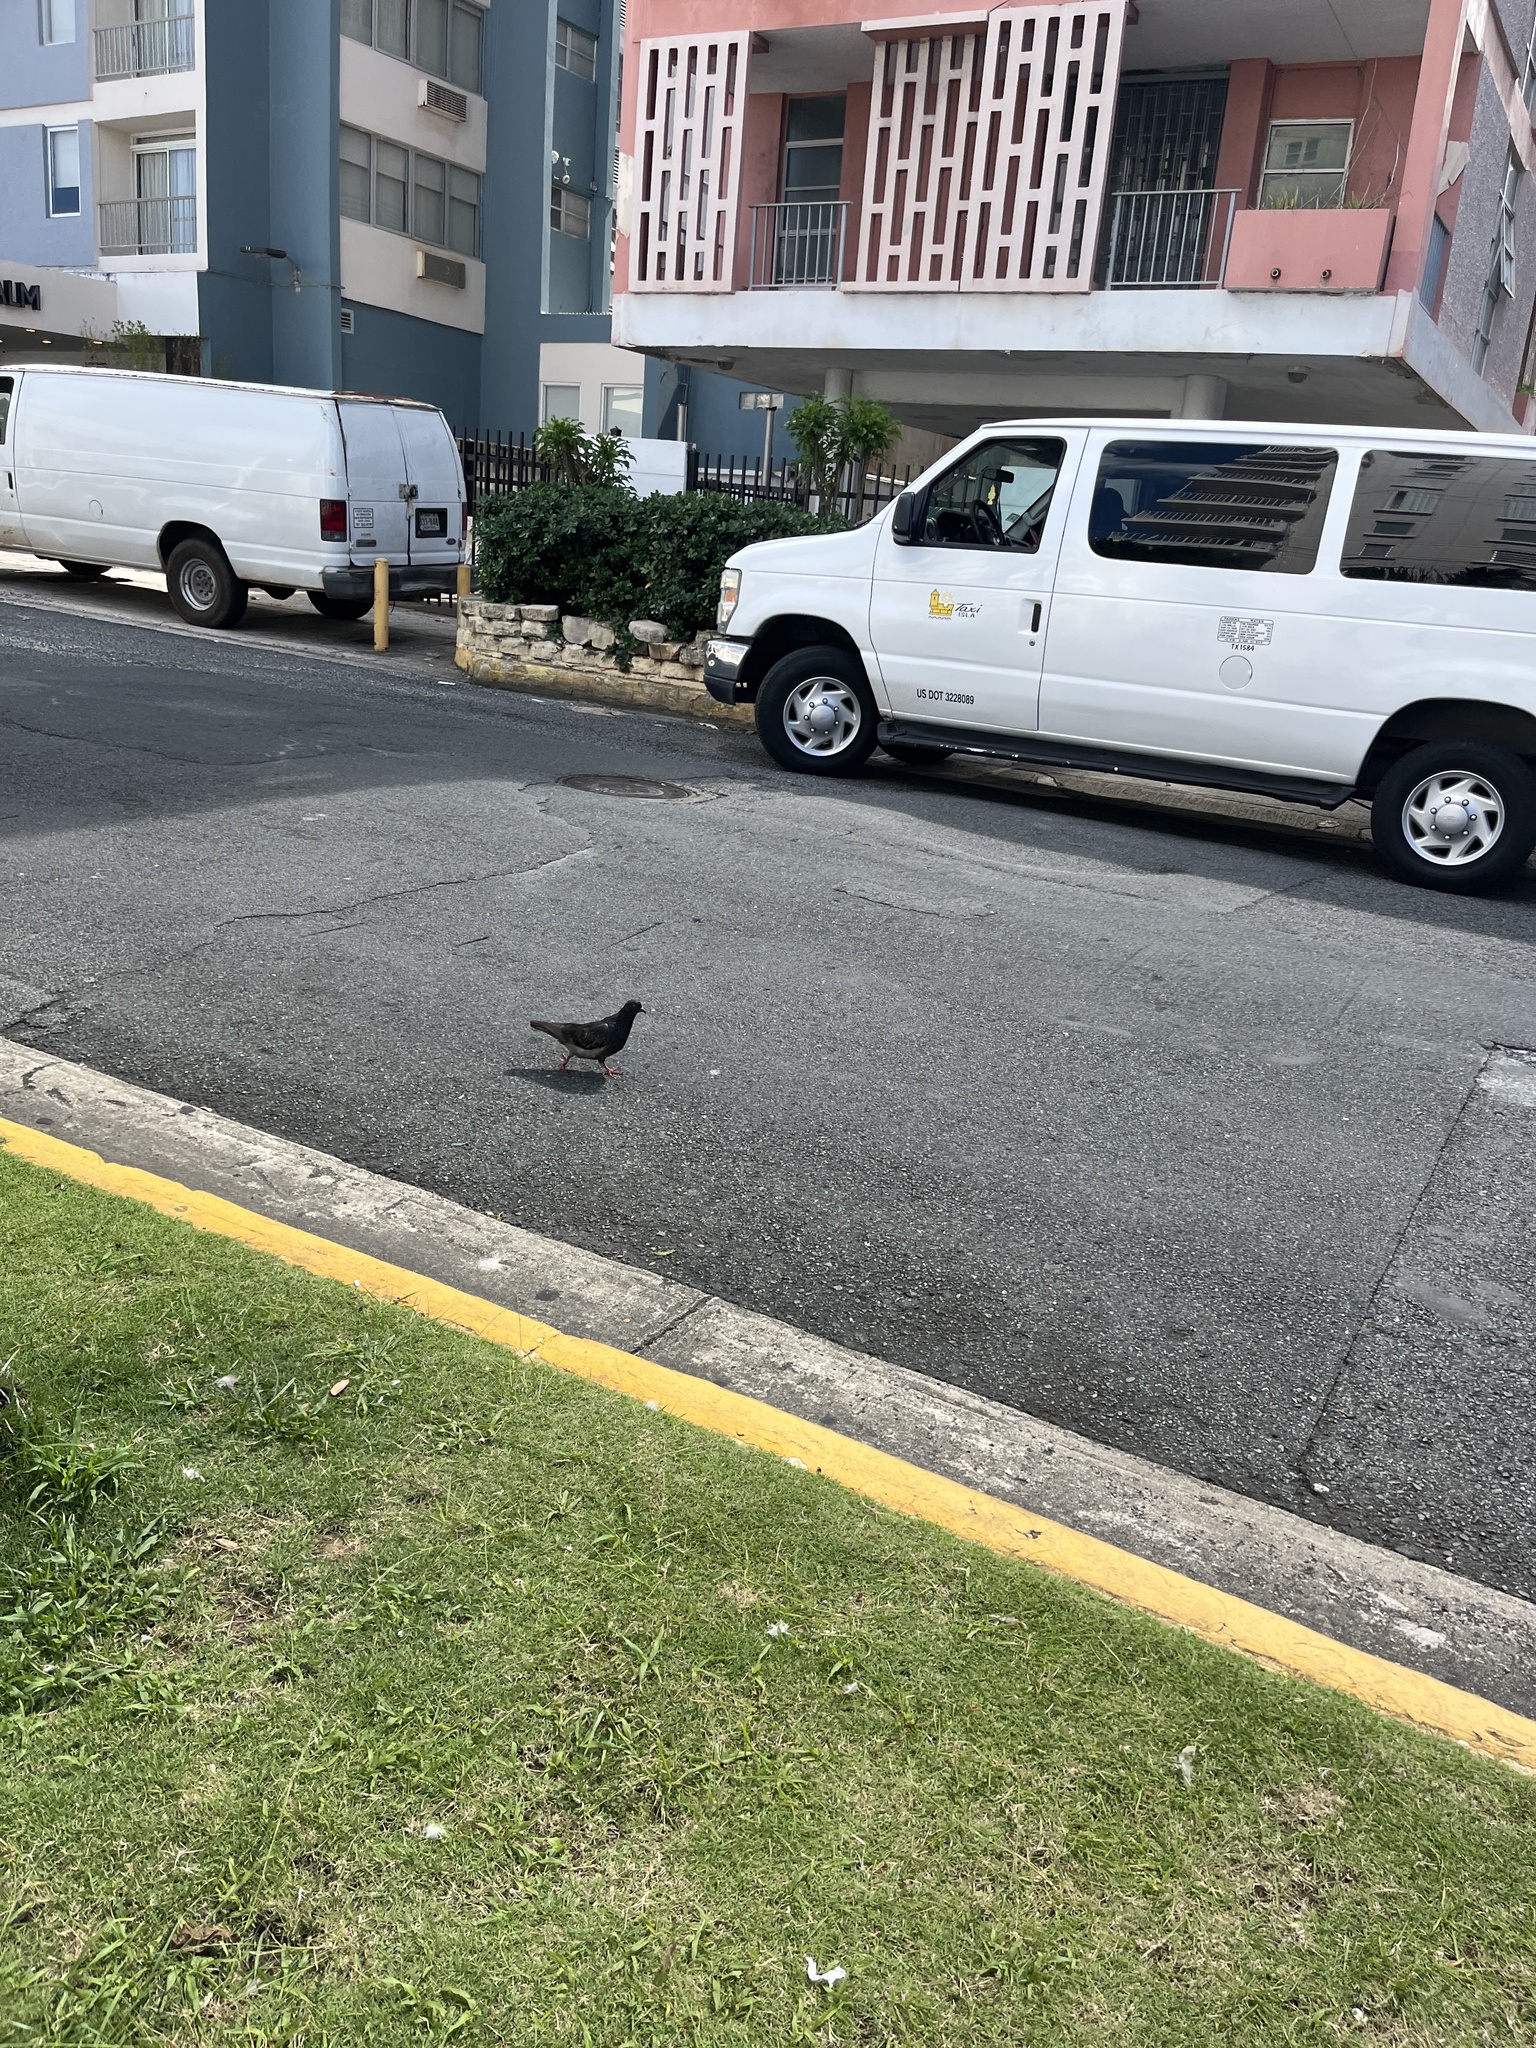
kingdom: Animalia
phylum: Chordata
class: Aves
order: Columbiformes
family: Columbidae
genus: Columba
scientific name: Columba livia
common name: Rock pigeon
